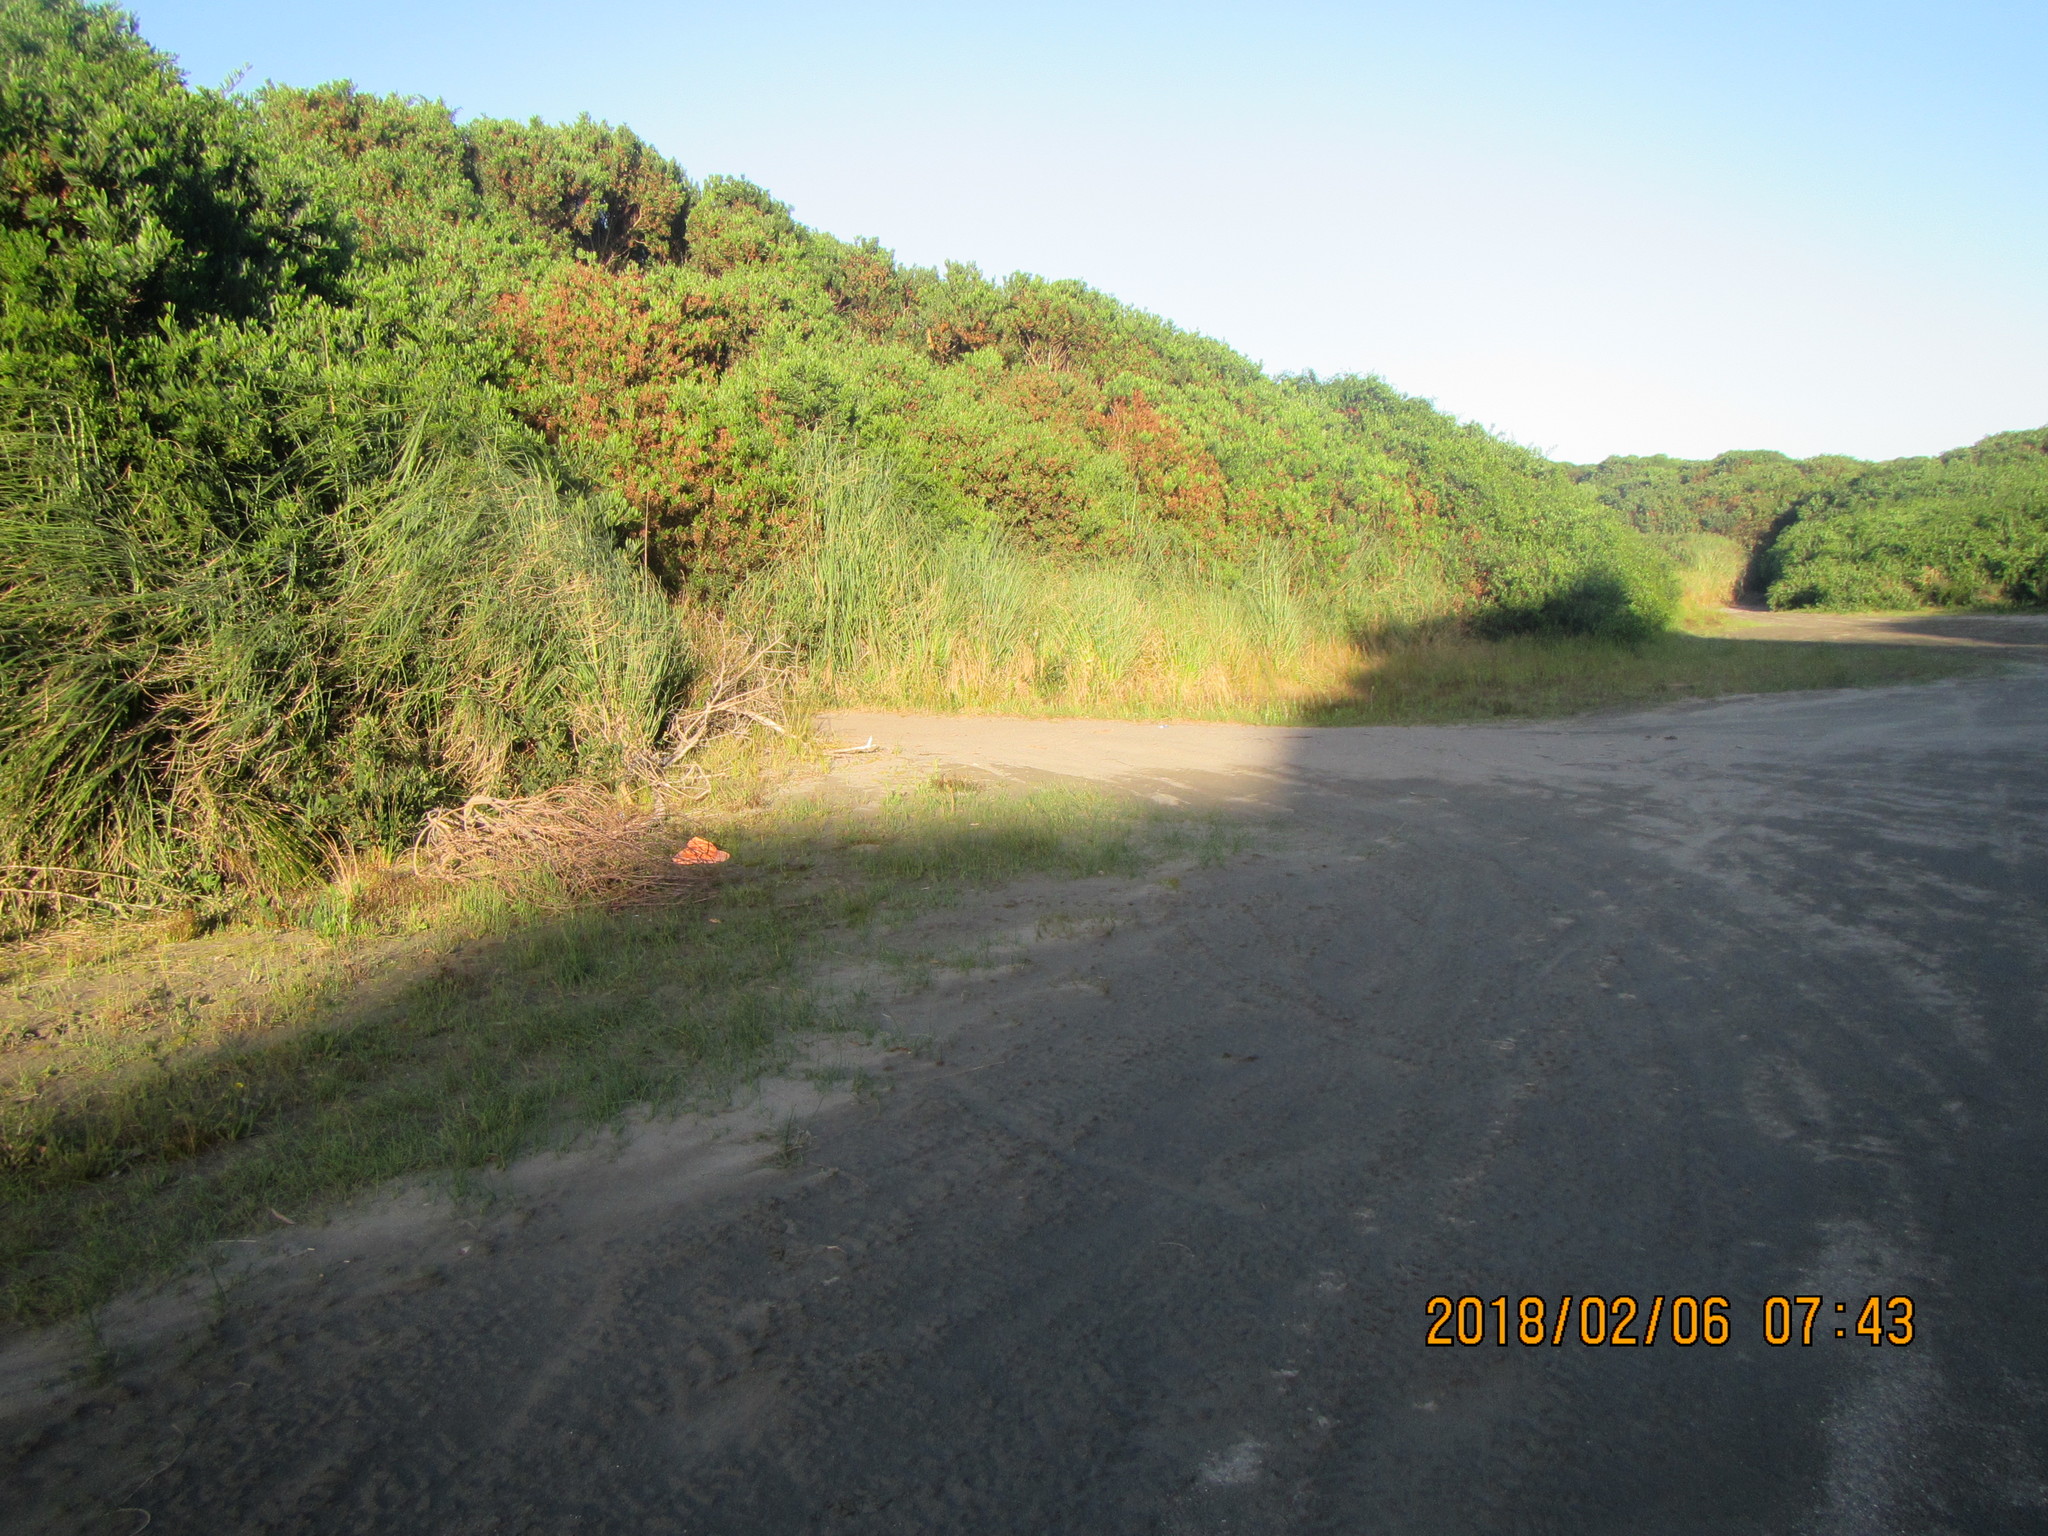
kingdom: Plantae
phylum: Tracheophyta
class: Magnoliopsida
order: Asterales
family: Goodeniaceae
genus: Goodenia
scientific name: Goodenia heenanii
